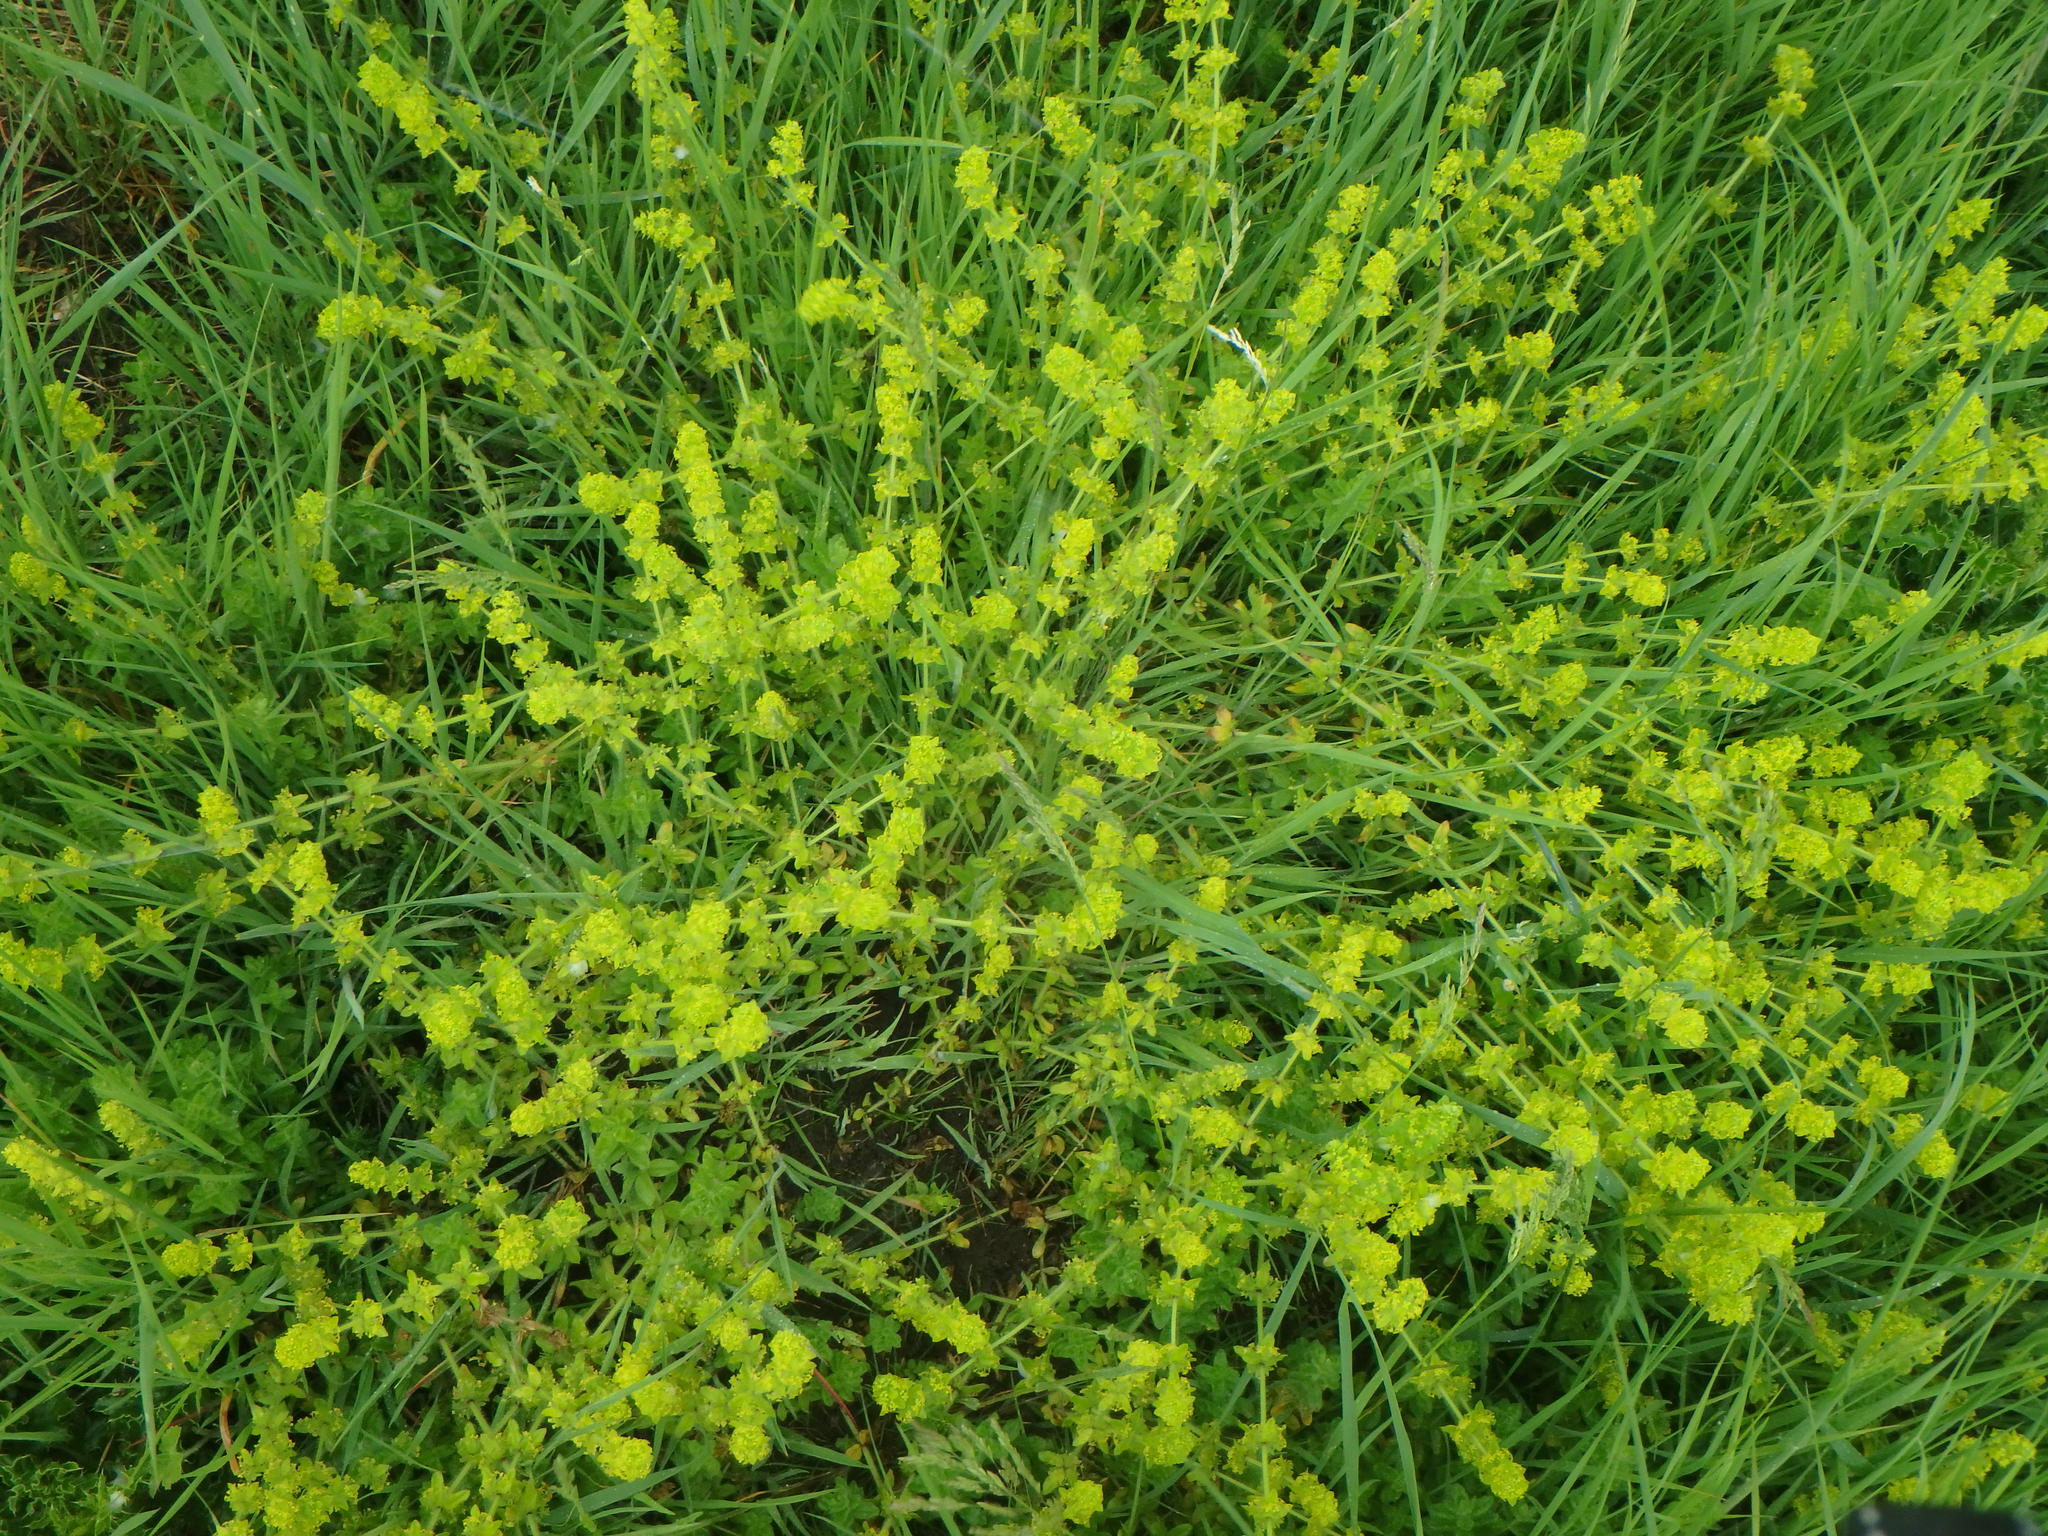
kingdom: Plantae
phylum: Tracheophyta
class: Magnoliopsida
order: Gentianales
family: Rubiaceae
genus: Cruciata
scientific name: Cruciata laevipes
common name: Crosswort
